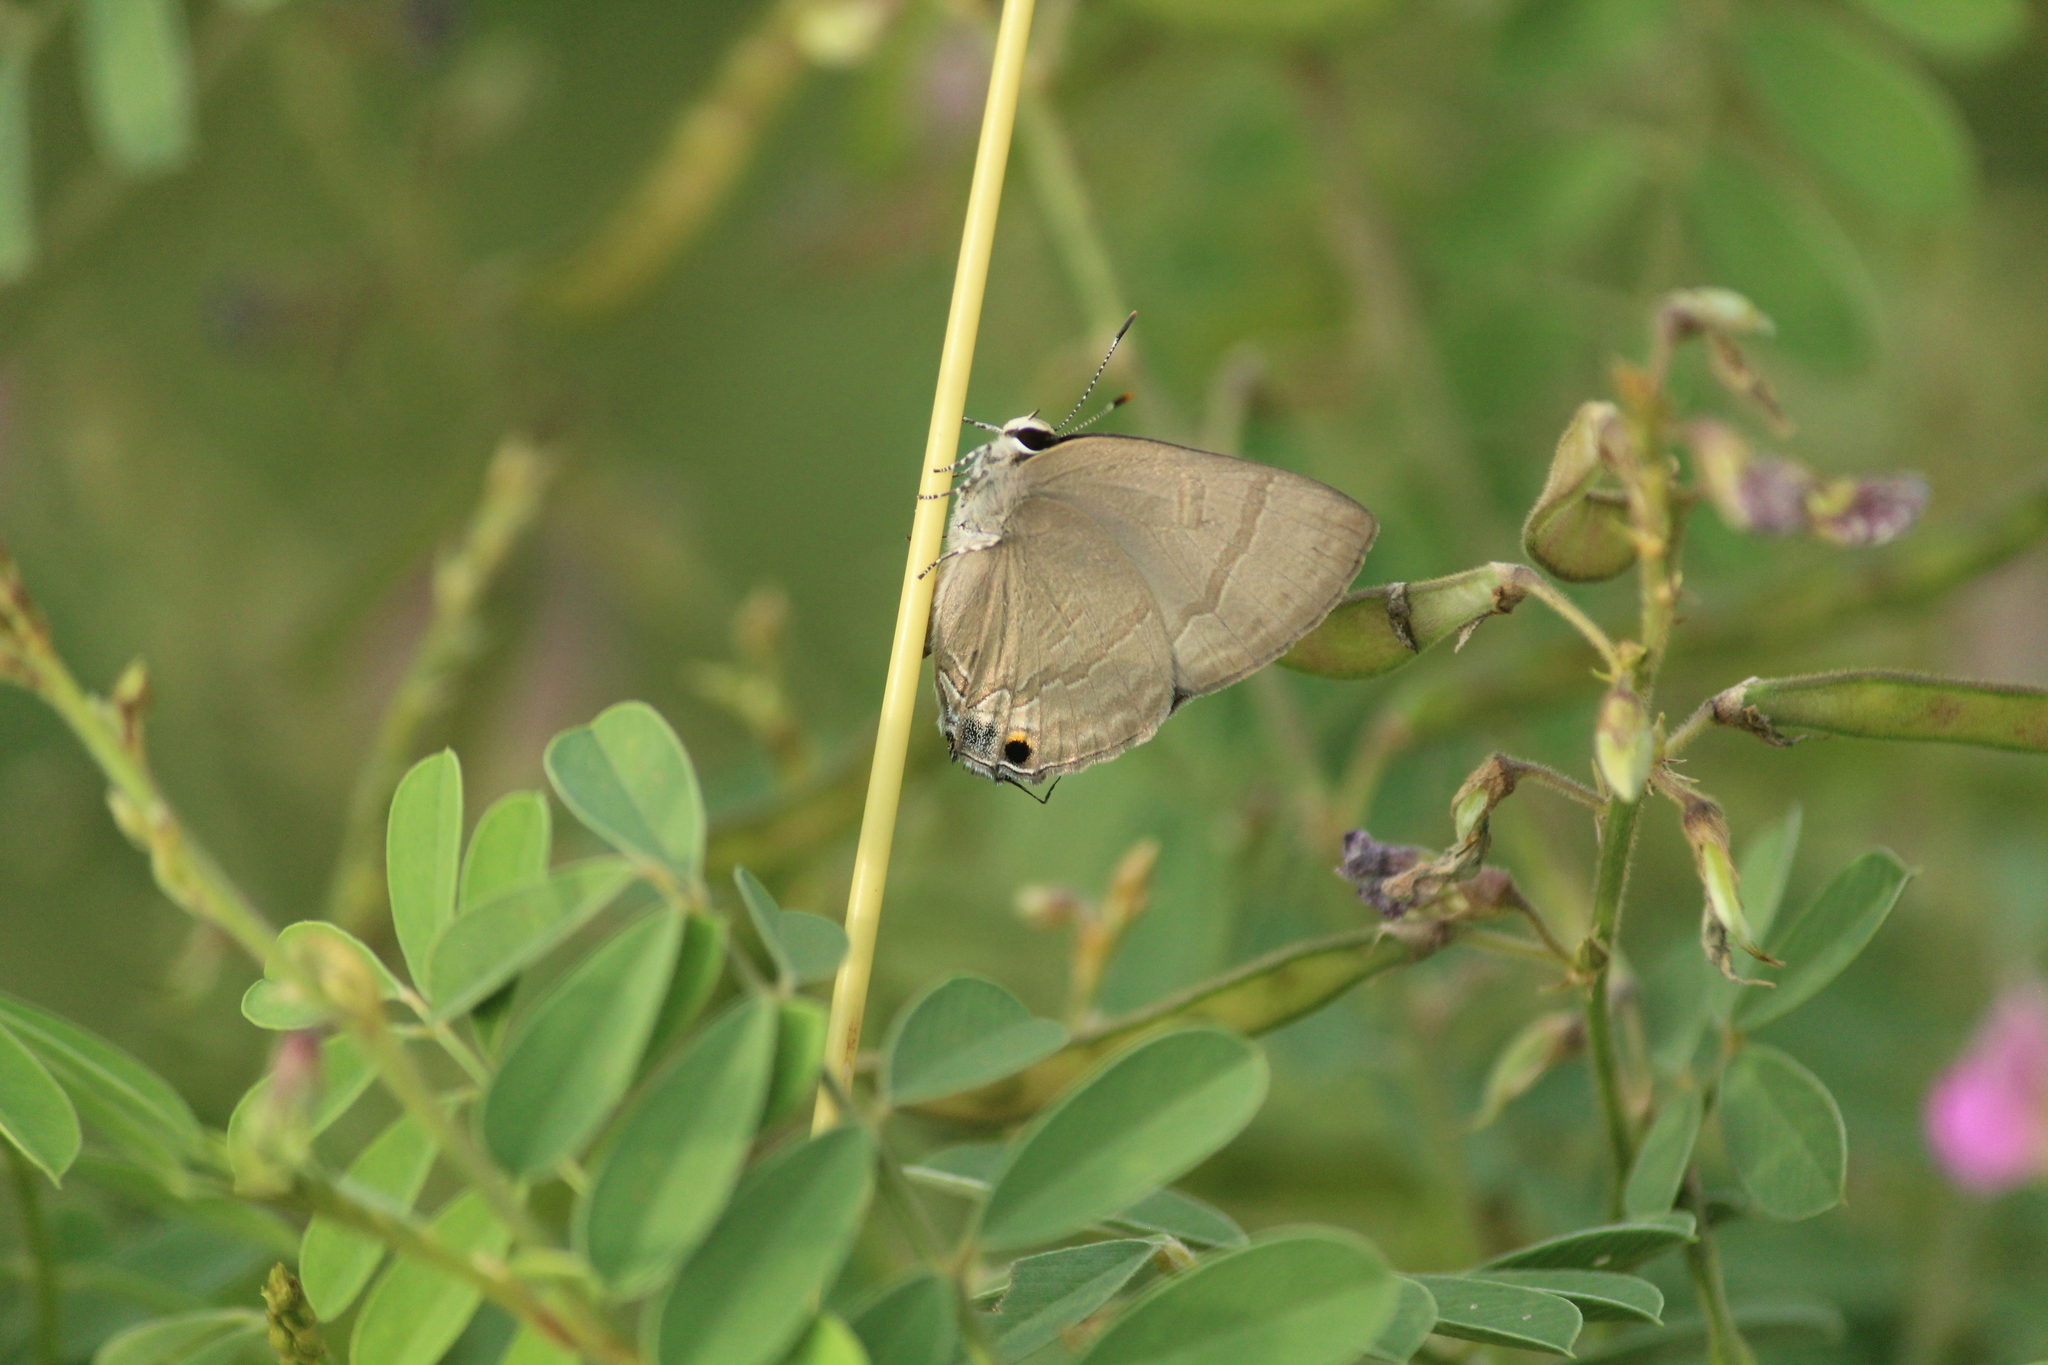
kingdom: Animalia
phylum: Arthropoda
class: Insecta
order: Lepidoptera
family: Lycaenidae
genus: Rapala
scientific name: Rapala manea
